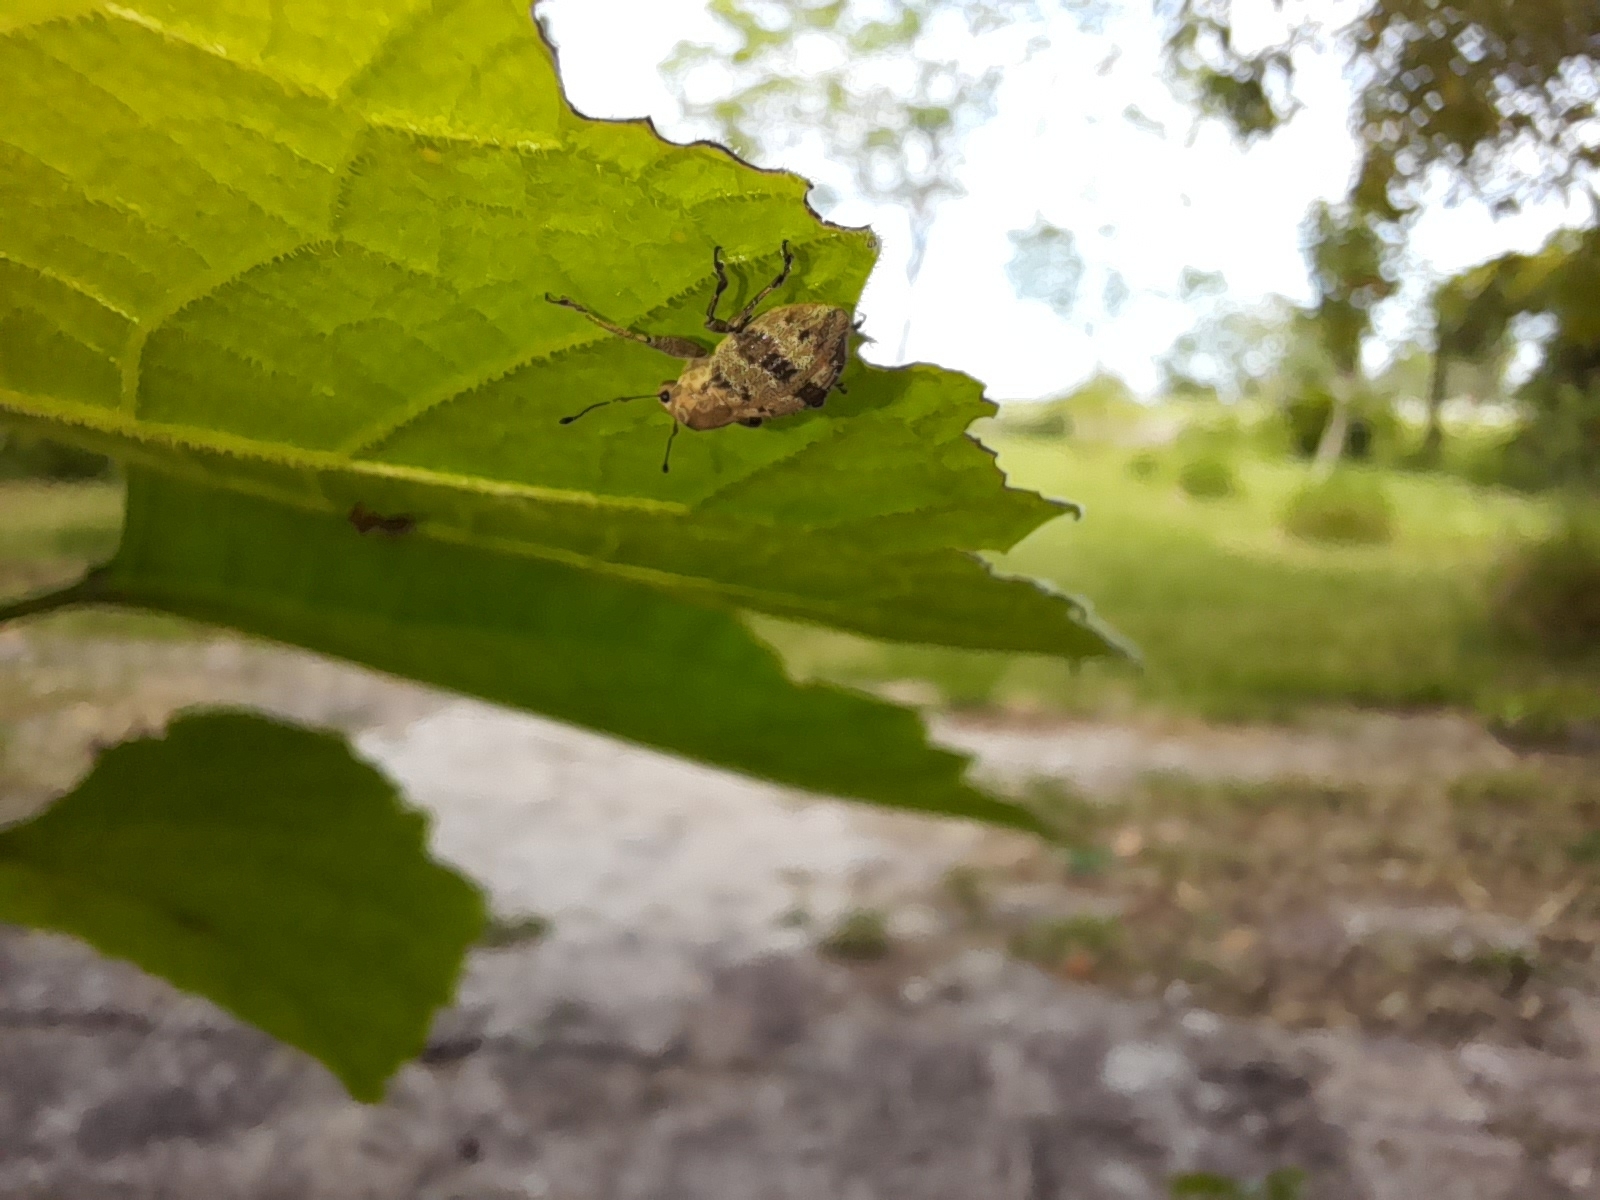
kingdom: Animalia
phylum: Arthropoda
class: Insecta
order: Coleoptera
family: Curculionidae
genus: Pantomorus
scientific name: Pantomorus
